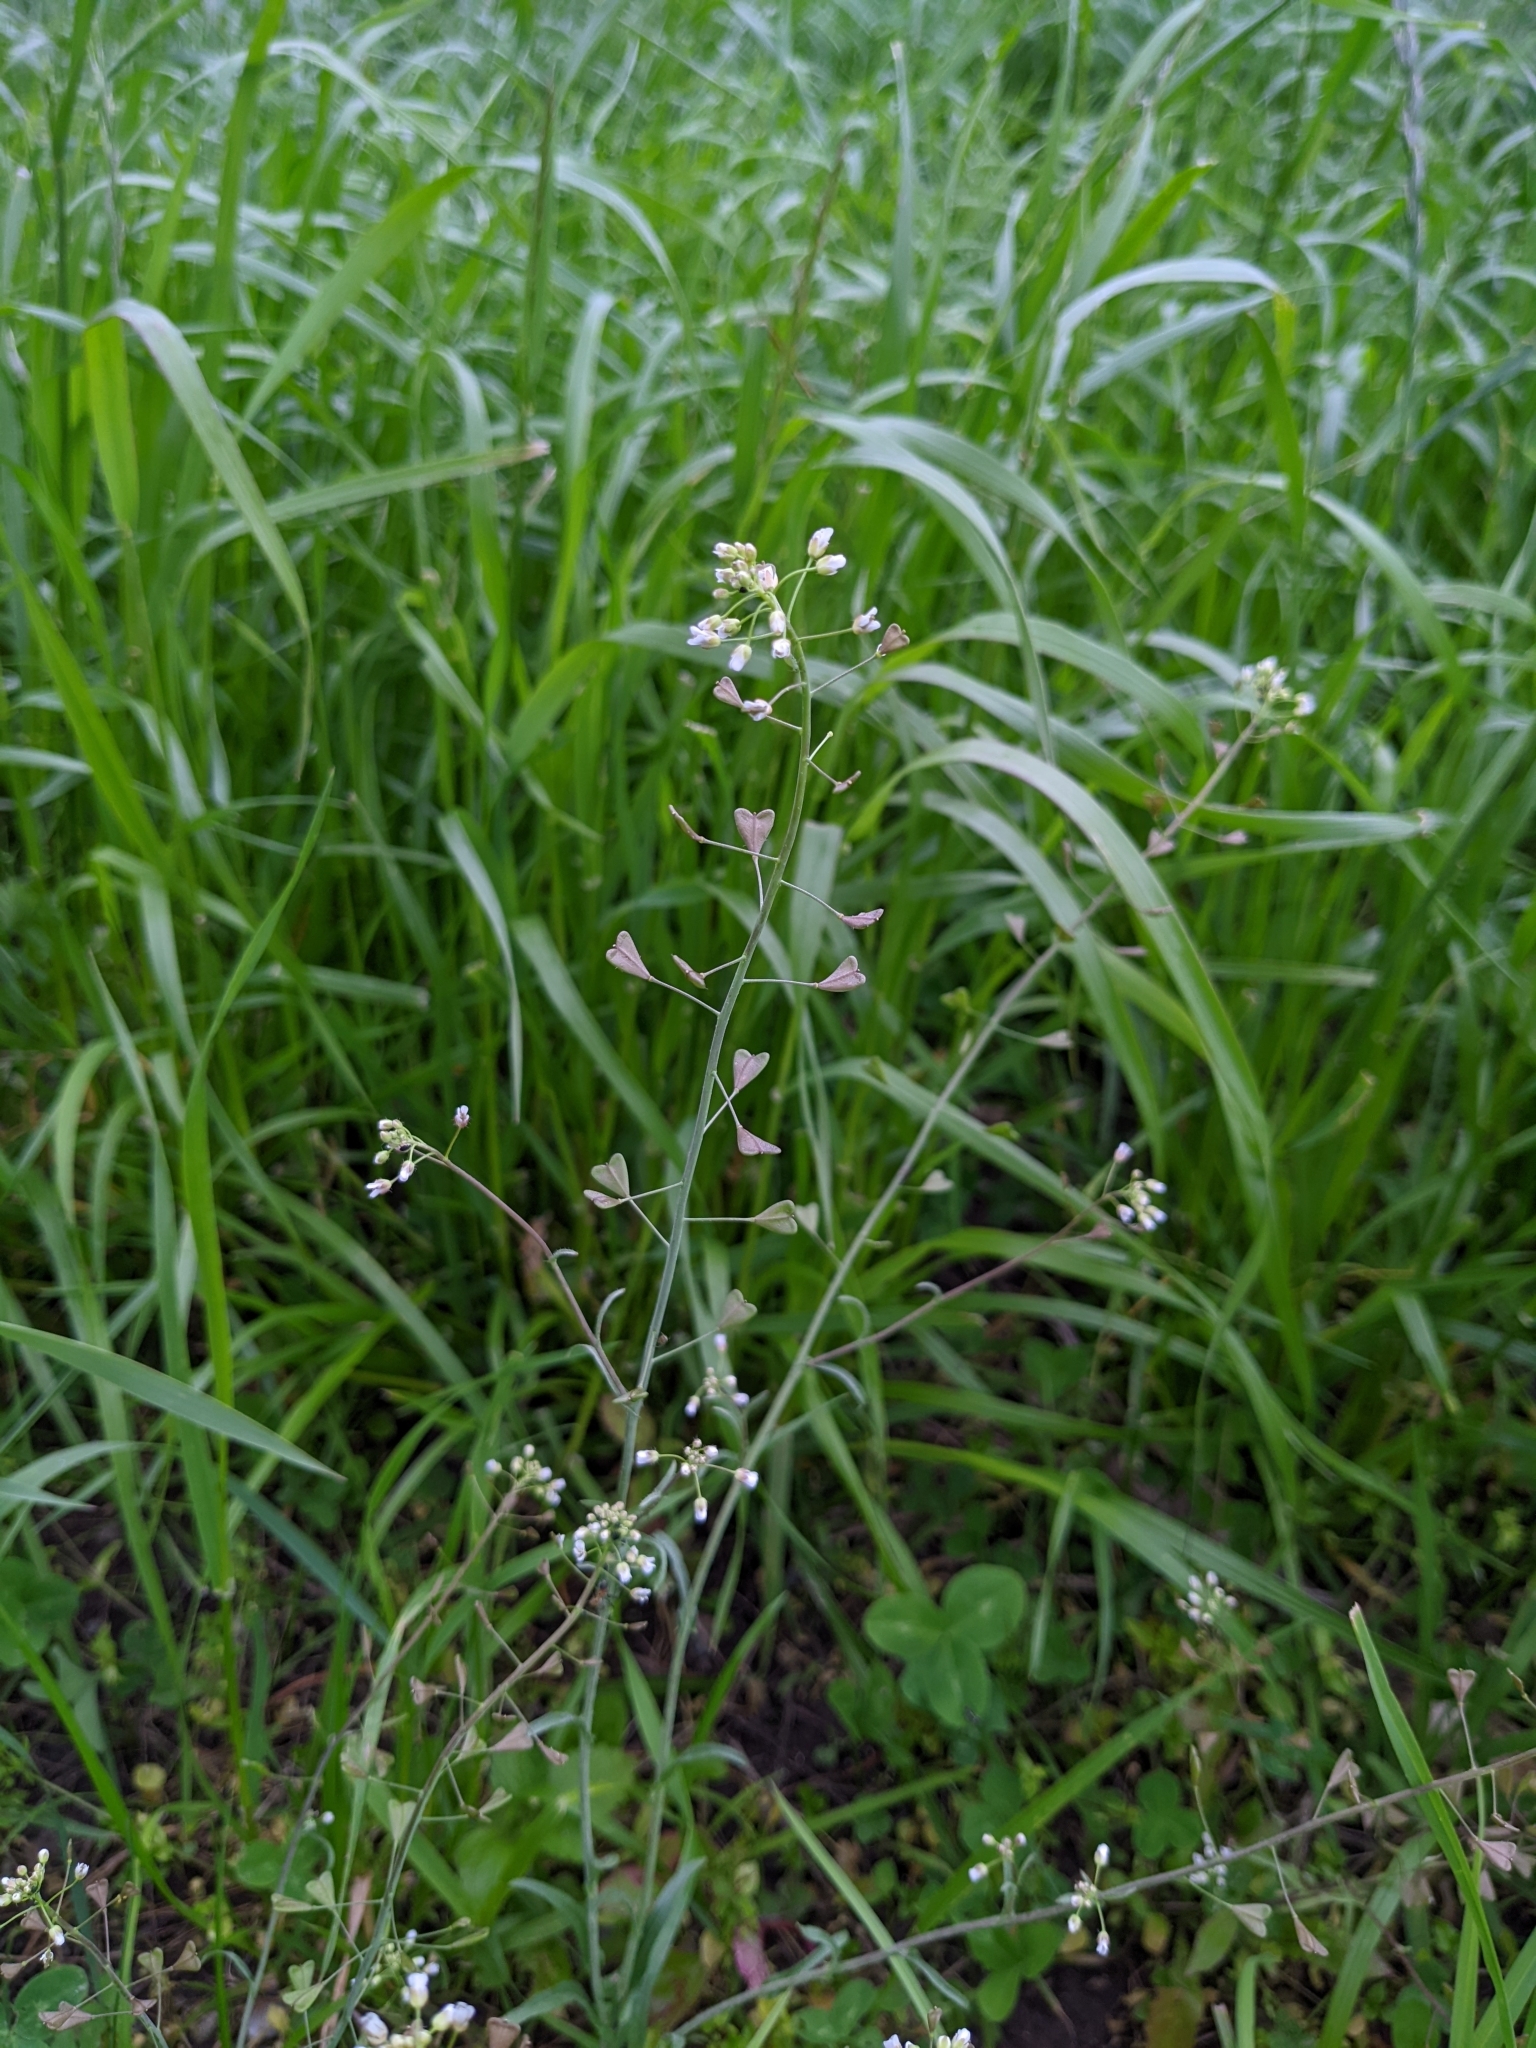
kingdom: Plantae
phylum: Tracheophyta
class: Magnoliopsida
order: Brassicales
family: Brassicaceae
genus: Capsella
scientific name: Capsella bursa-pastoris
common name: Shepherd's purse
